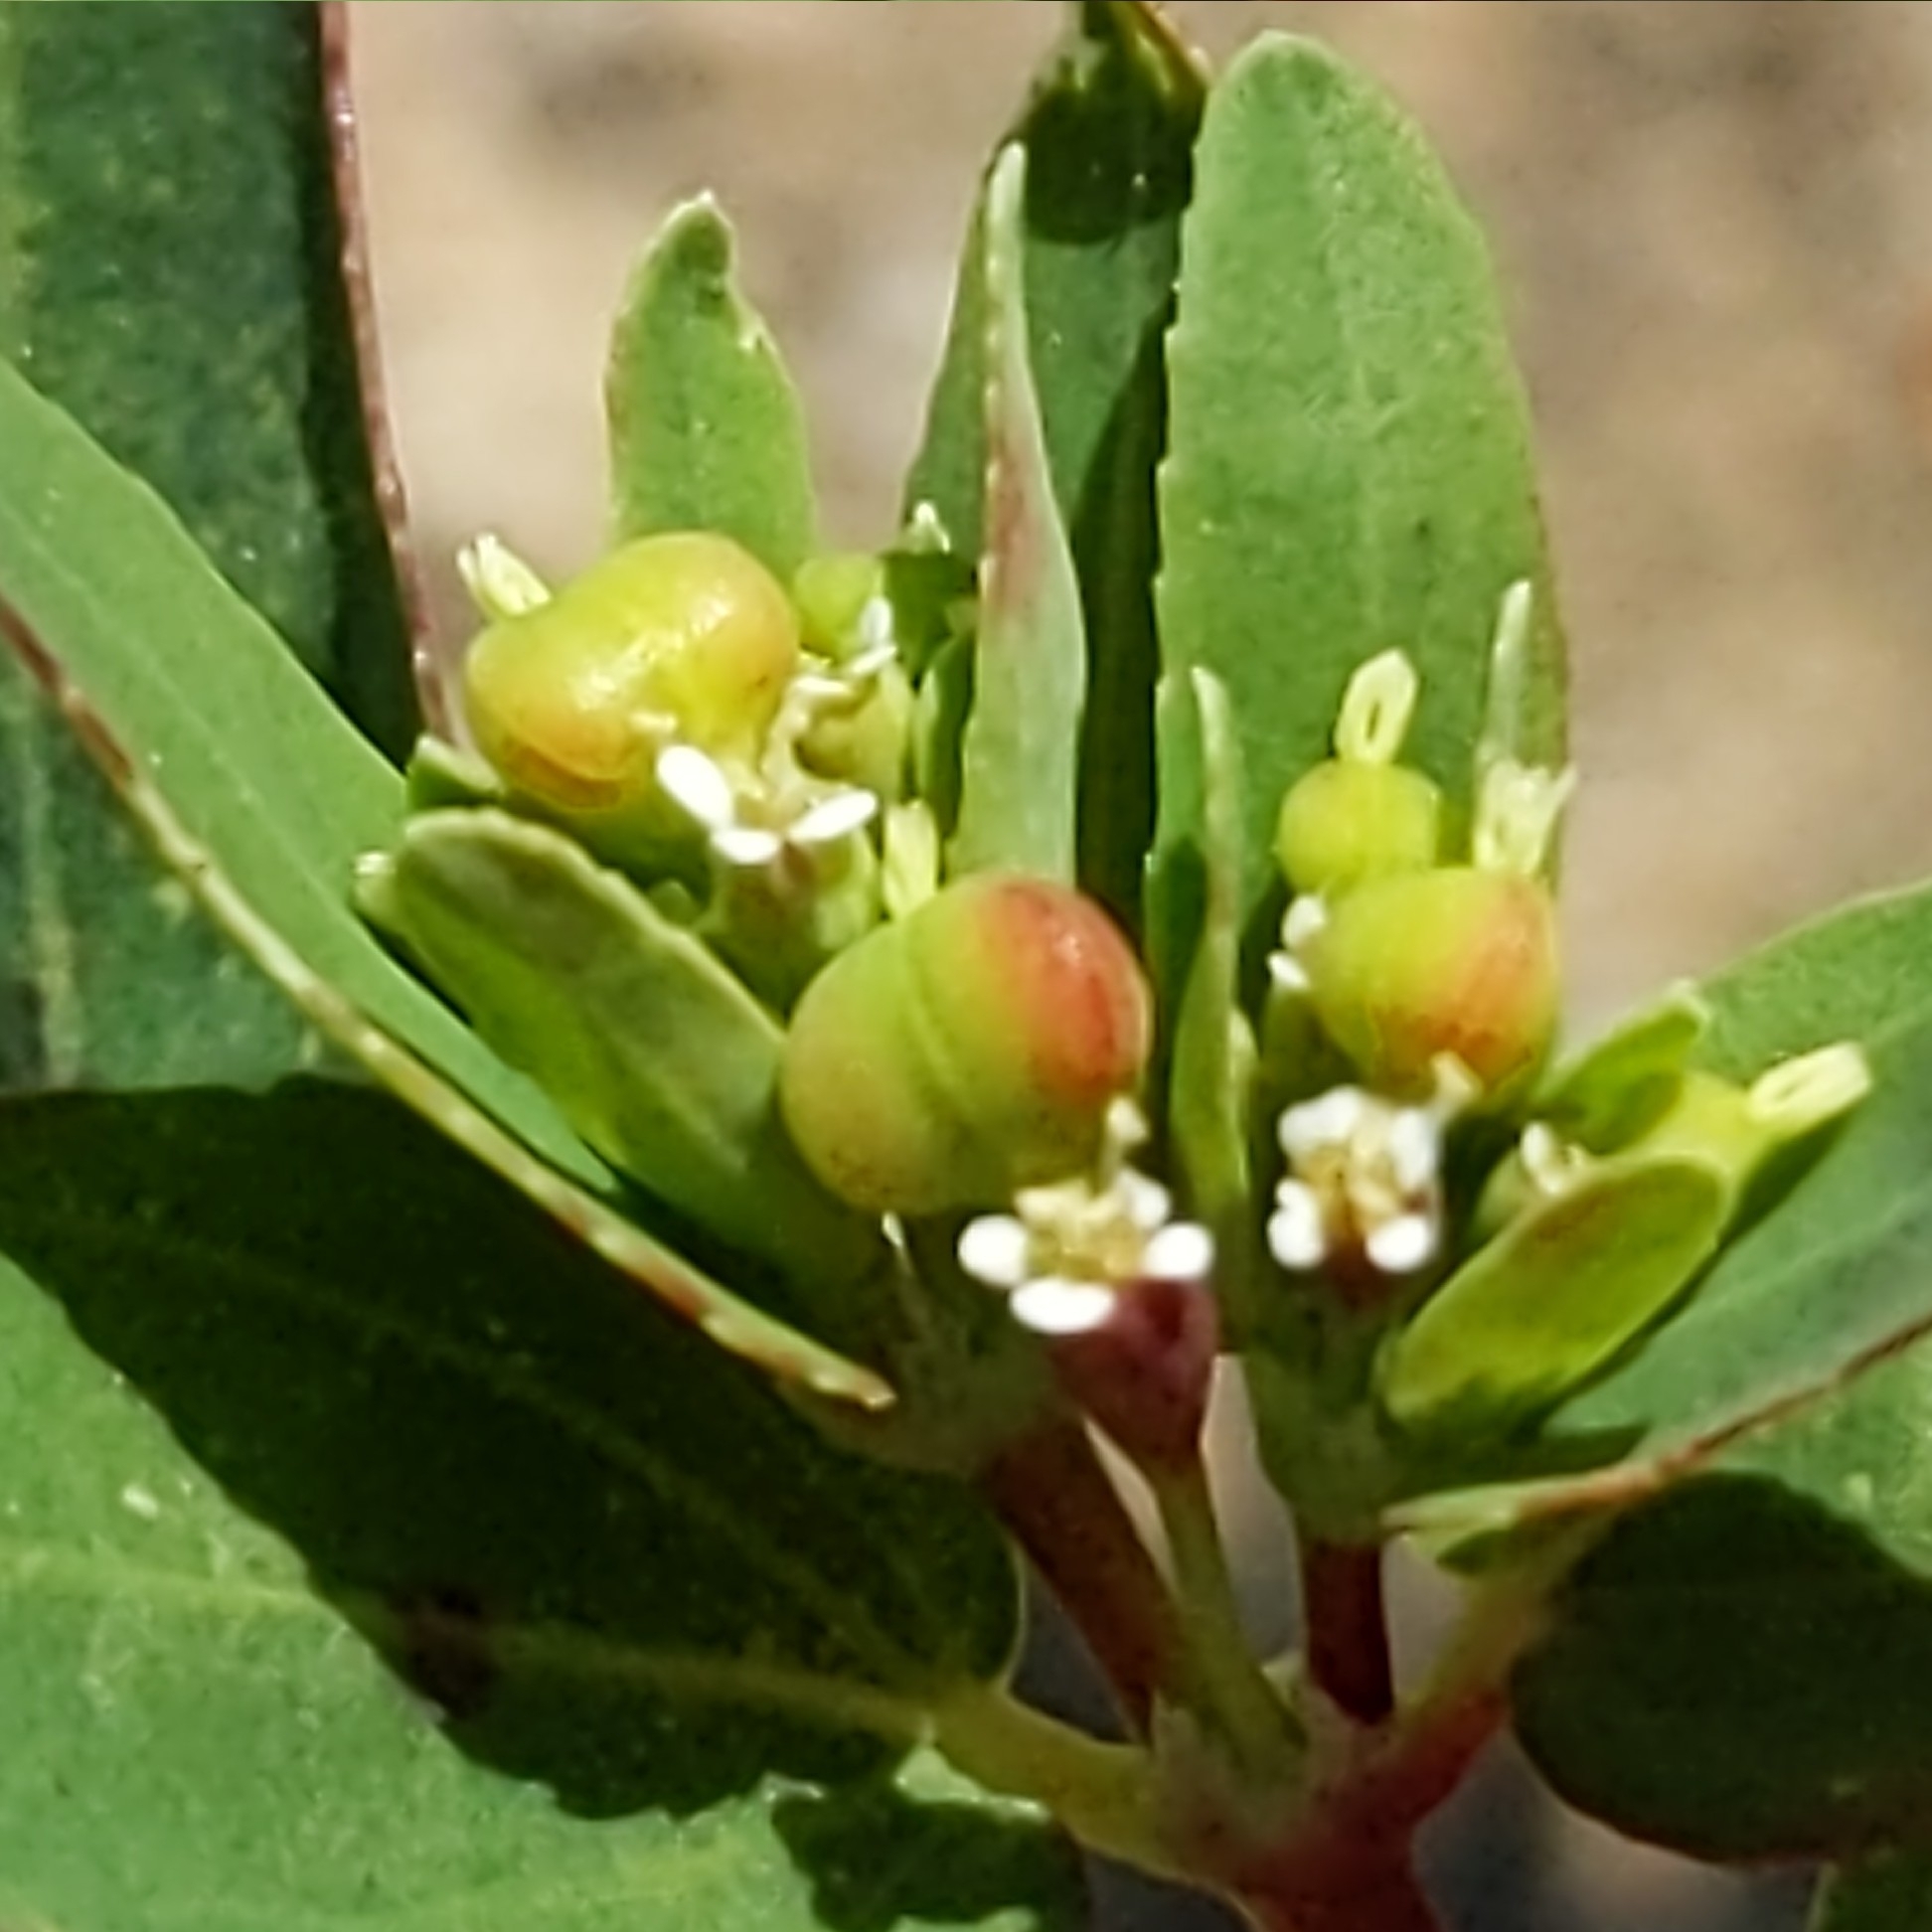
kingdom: Plantae
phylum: Tracheophyta
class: Magnoliopsida
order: Malpighiales
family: Euphorbiaceae
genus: Euphorbia
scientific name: Euphorbia nutans
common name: Eyebane
